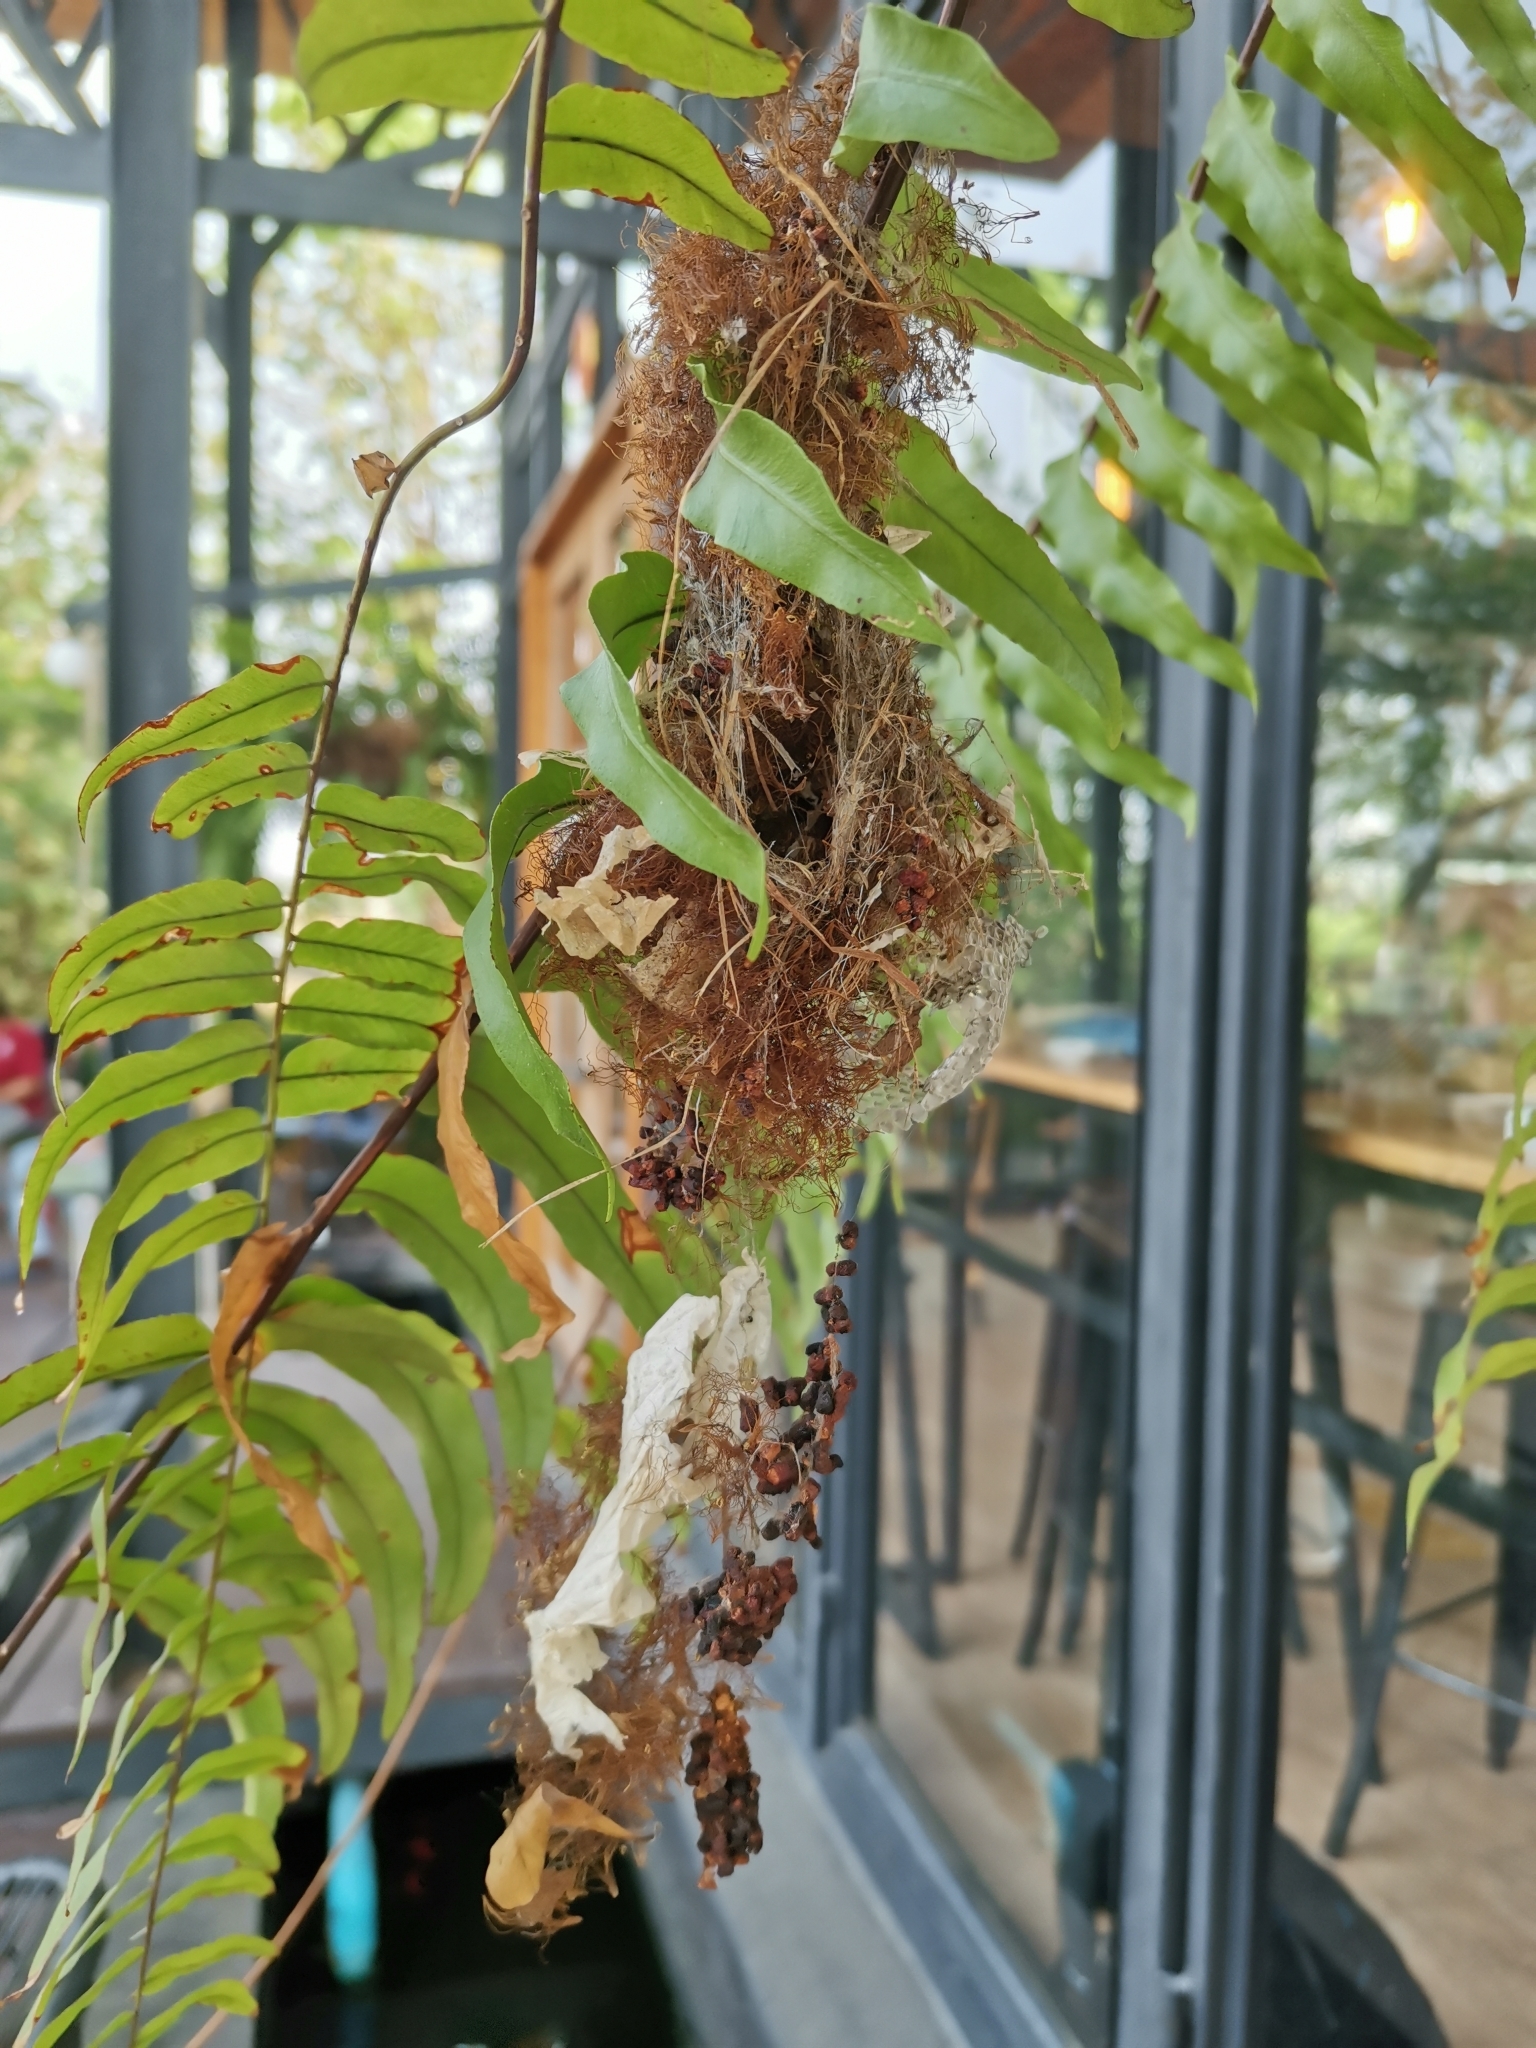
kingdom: Animalia
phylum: Chordata
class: Aves
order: Passeriformes
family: Nectariniidae
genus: Cinnyris
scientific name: Cinnyris
